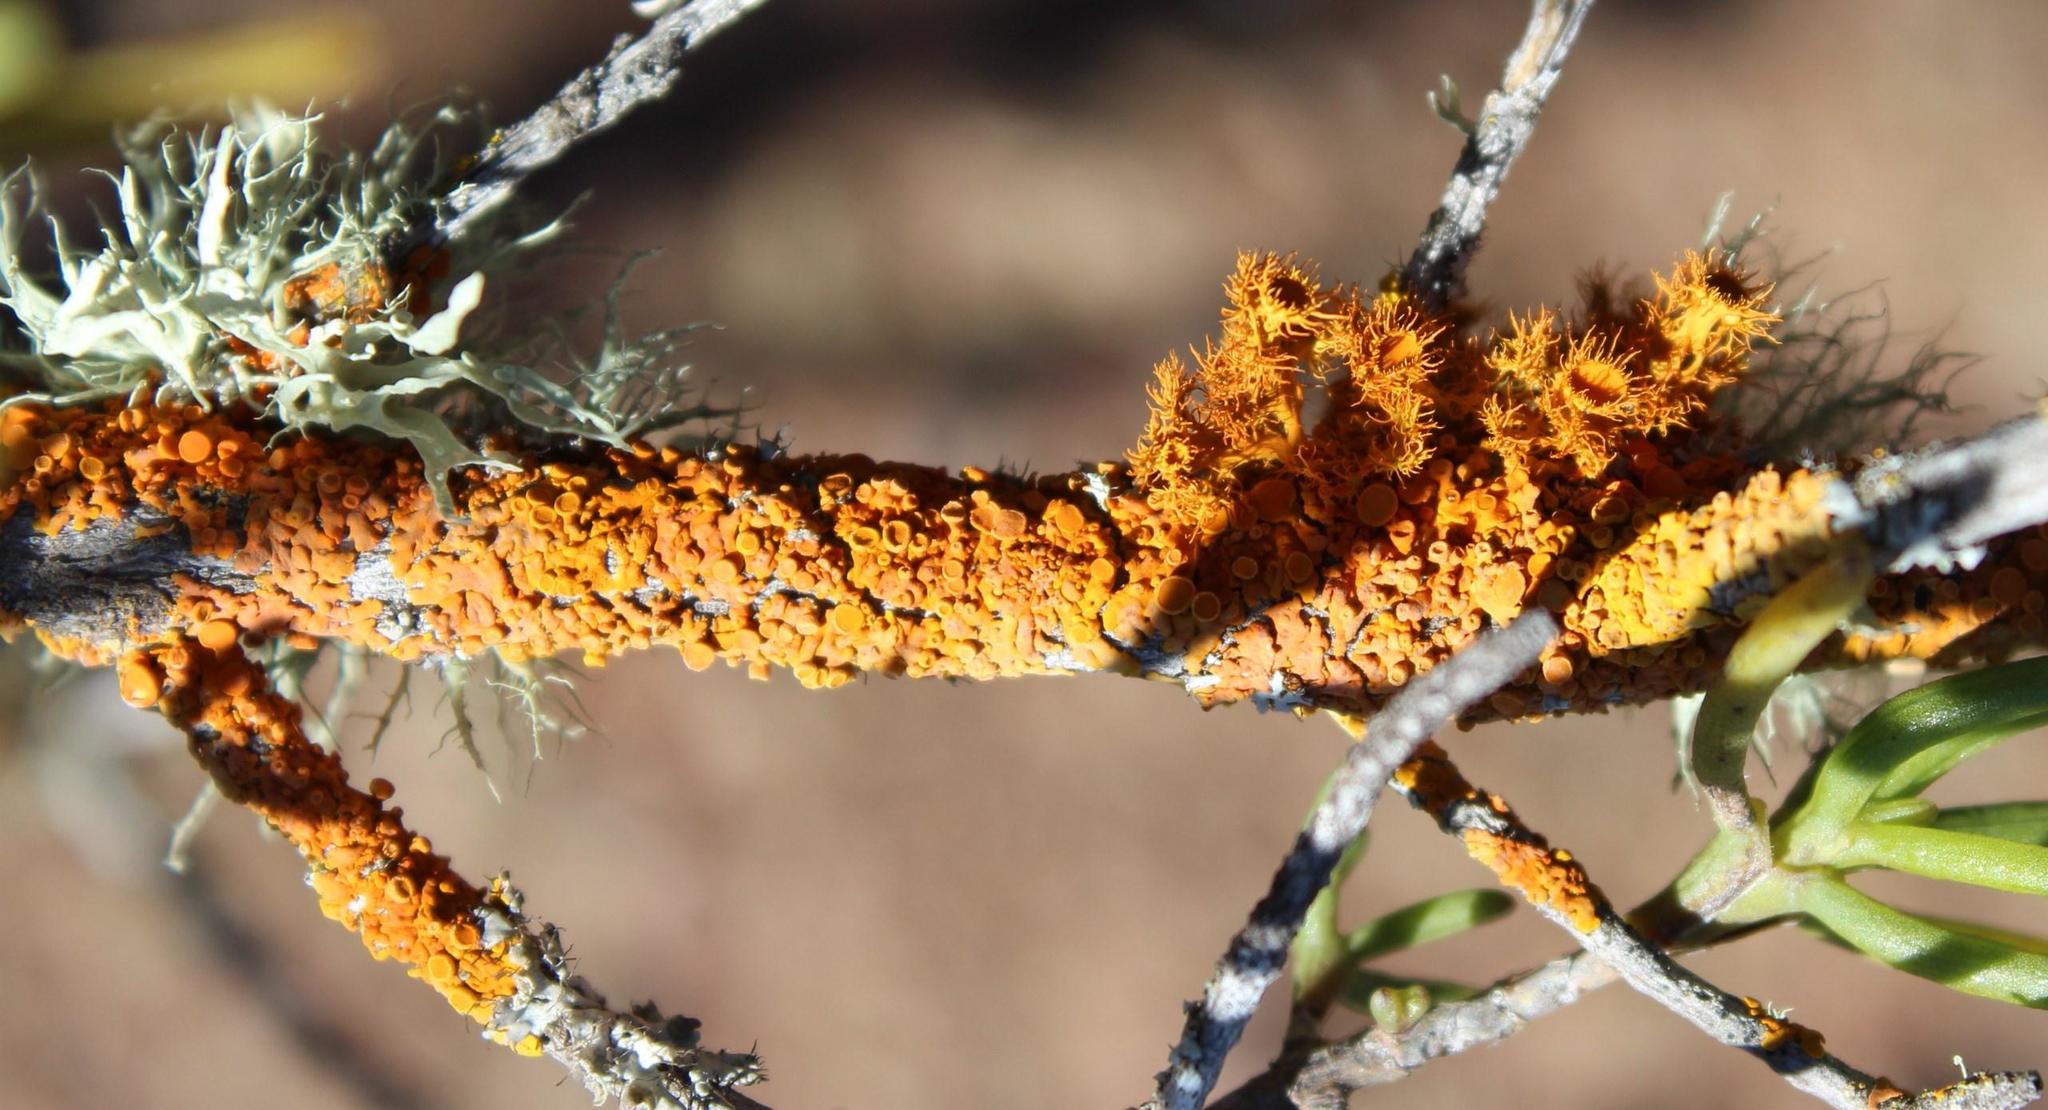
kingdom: Fungi
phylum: Ascomycota
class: Lecanoromycetes
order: Teloschistales
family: Teloschistaceae
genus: Dufourea
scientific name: Dufourea turbinata
